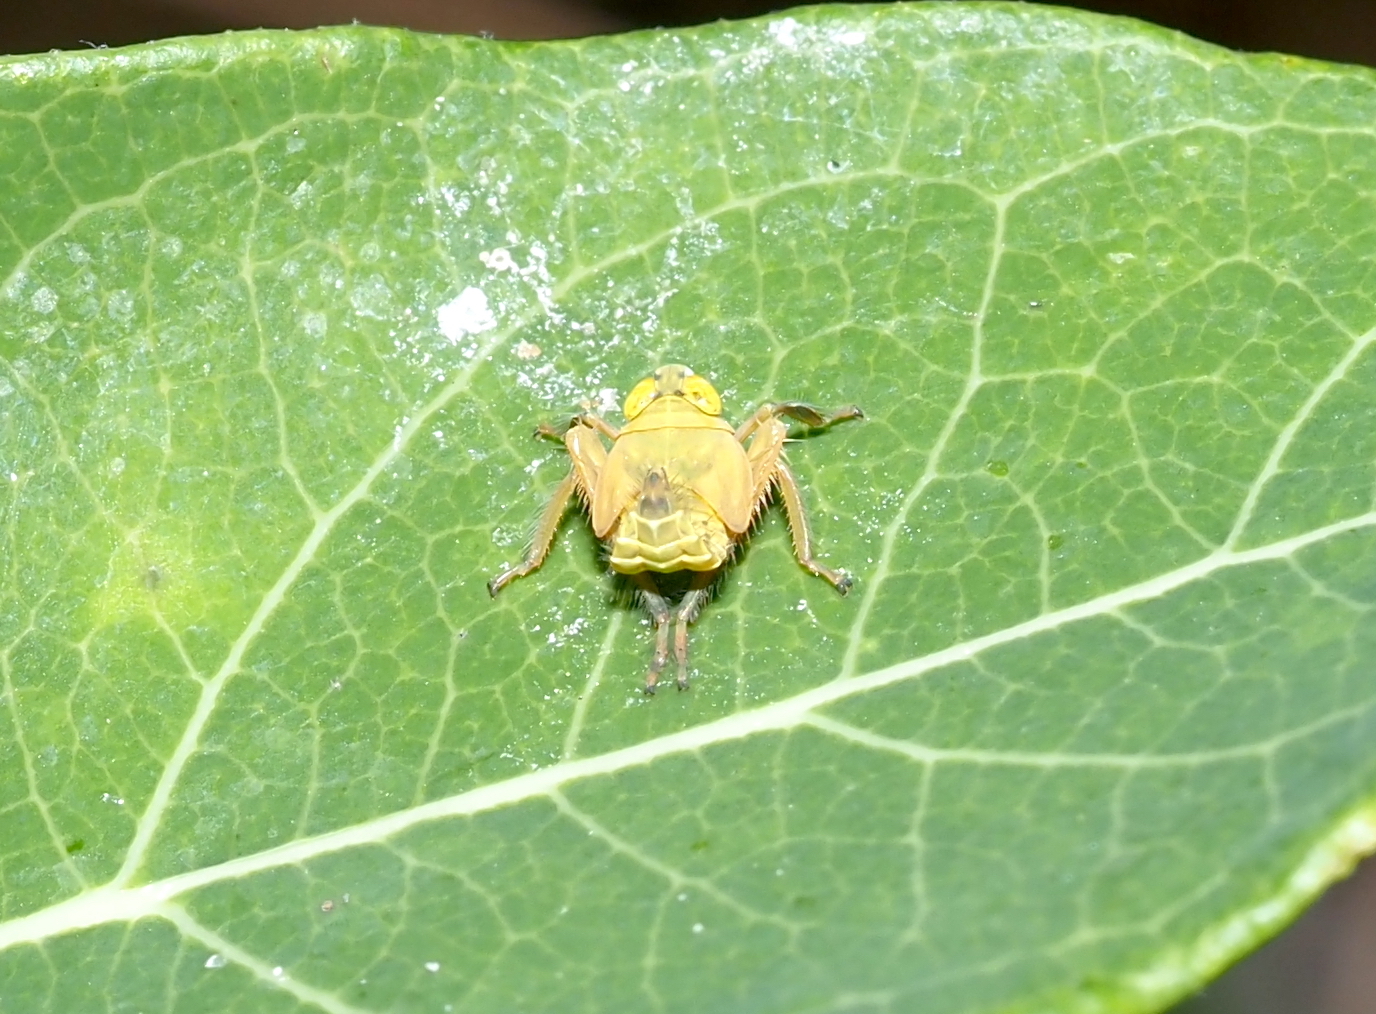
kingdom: Animalia
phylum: Arthropoda
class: Insecta
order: Hemiptera
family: Cicadellidae
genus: Jikradia
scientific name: Jikradia olitoria
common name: Coppery leafhopper
